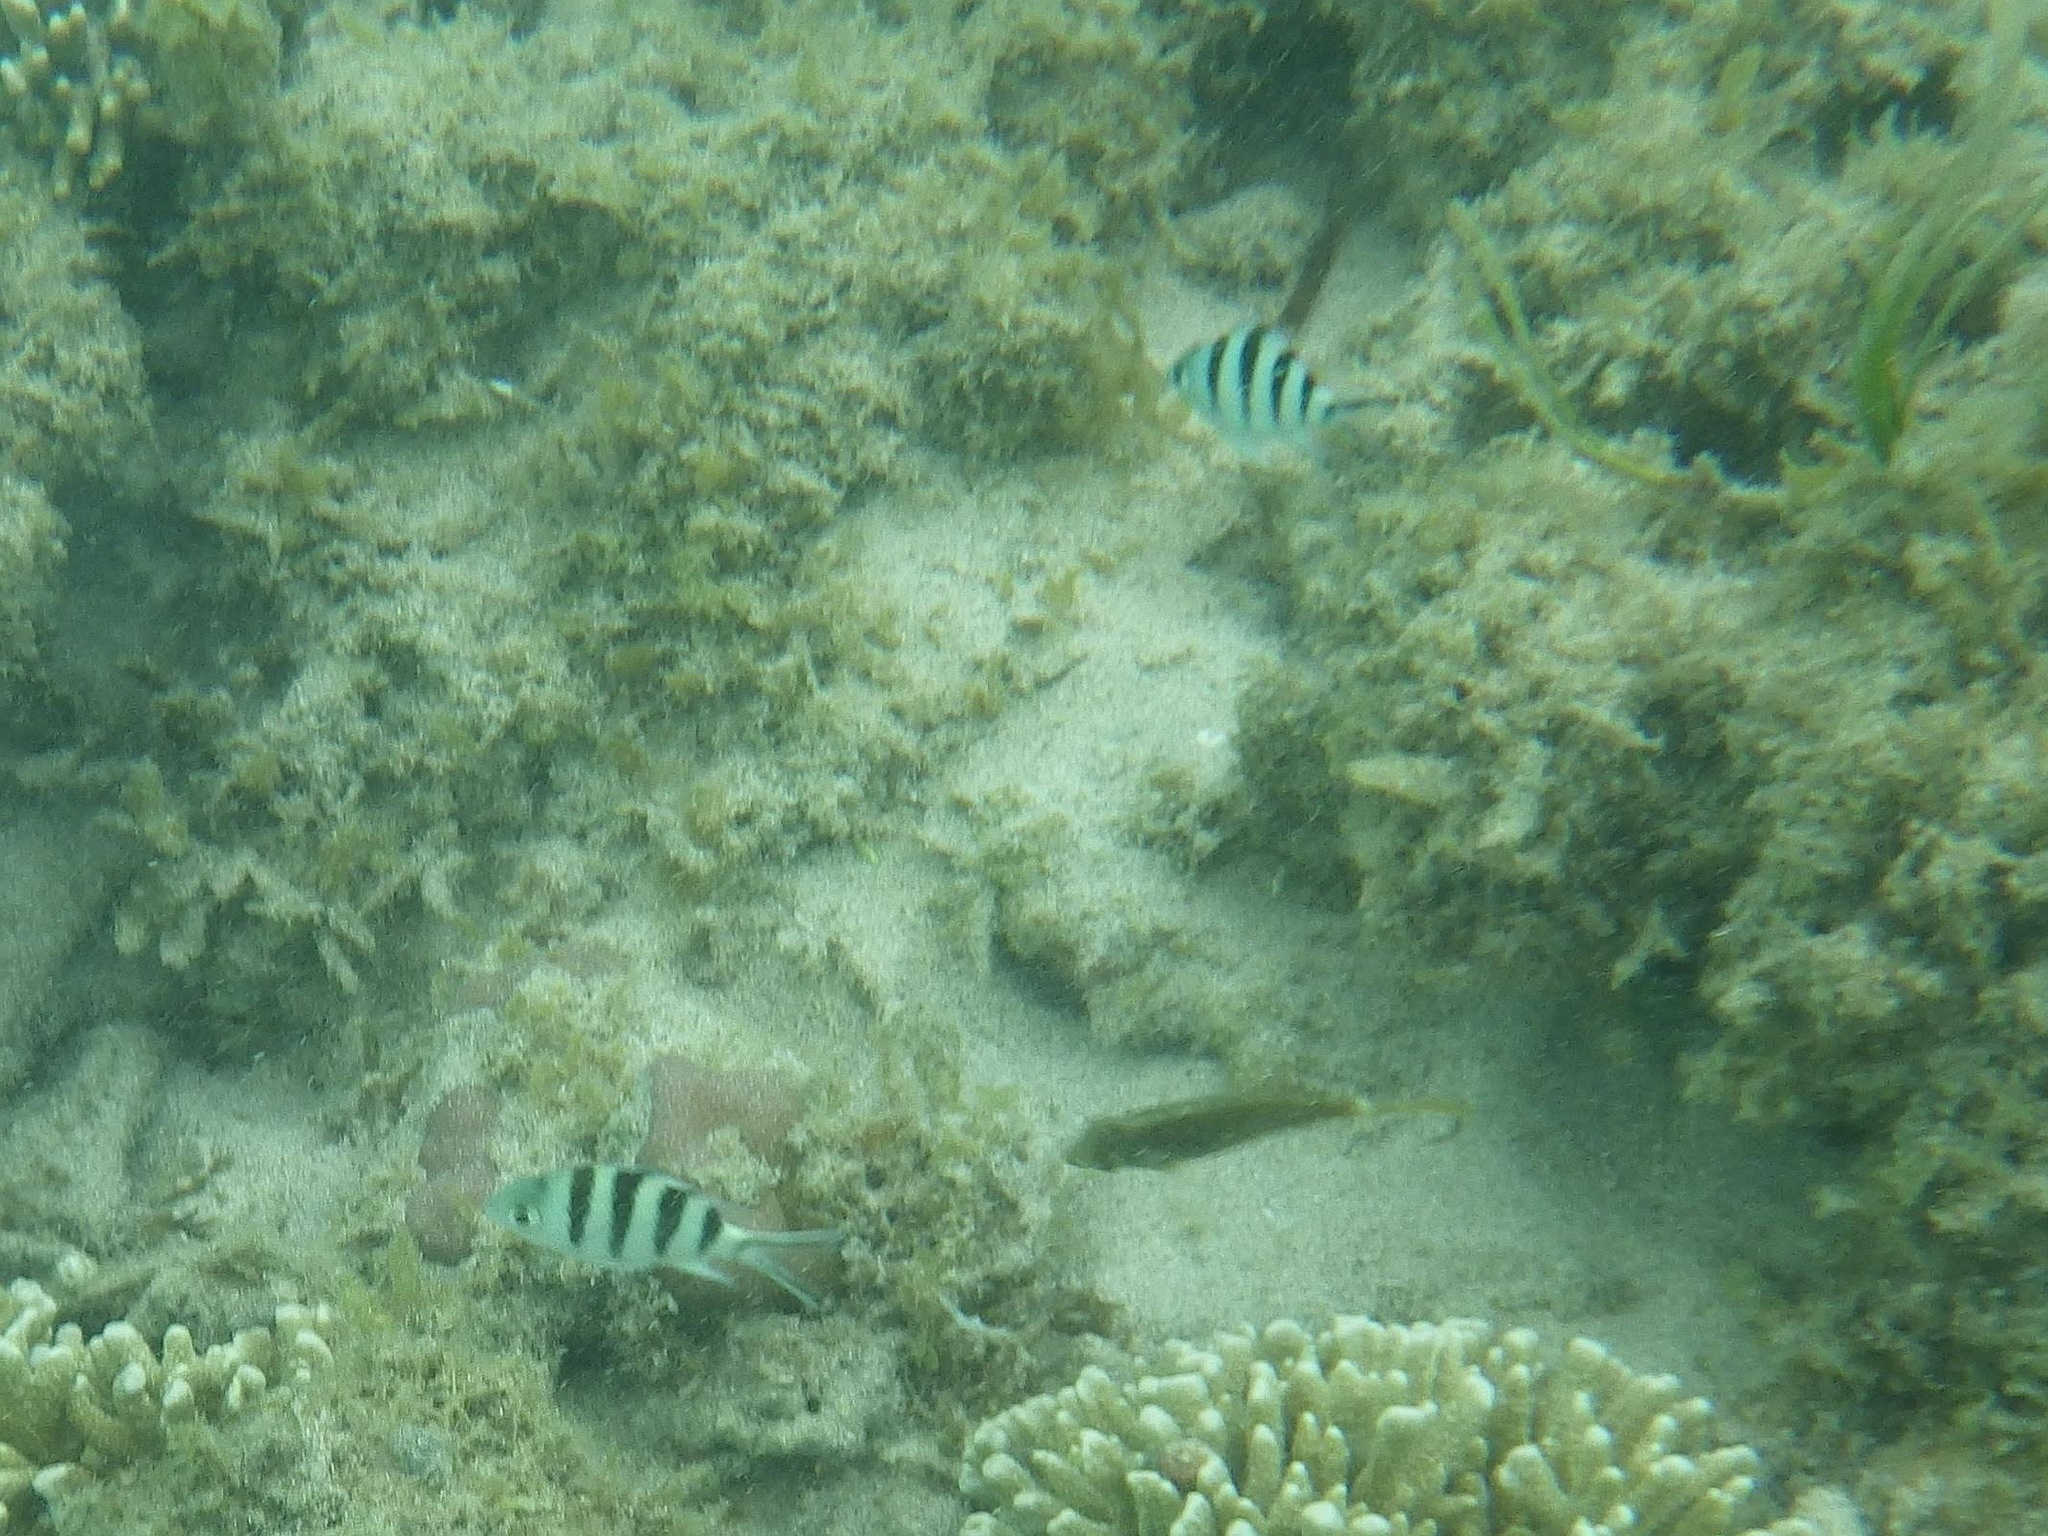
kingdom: Animalia
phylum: Chordata
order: Perciformes
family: Pomacentridae
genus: Abudefduf
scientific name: Abudefduf sexfasciatus
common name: Scissortail sergeant
